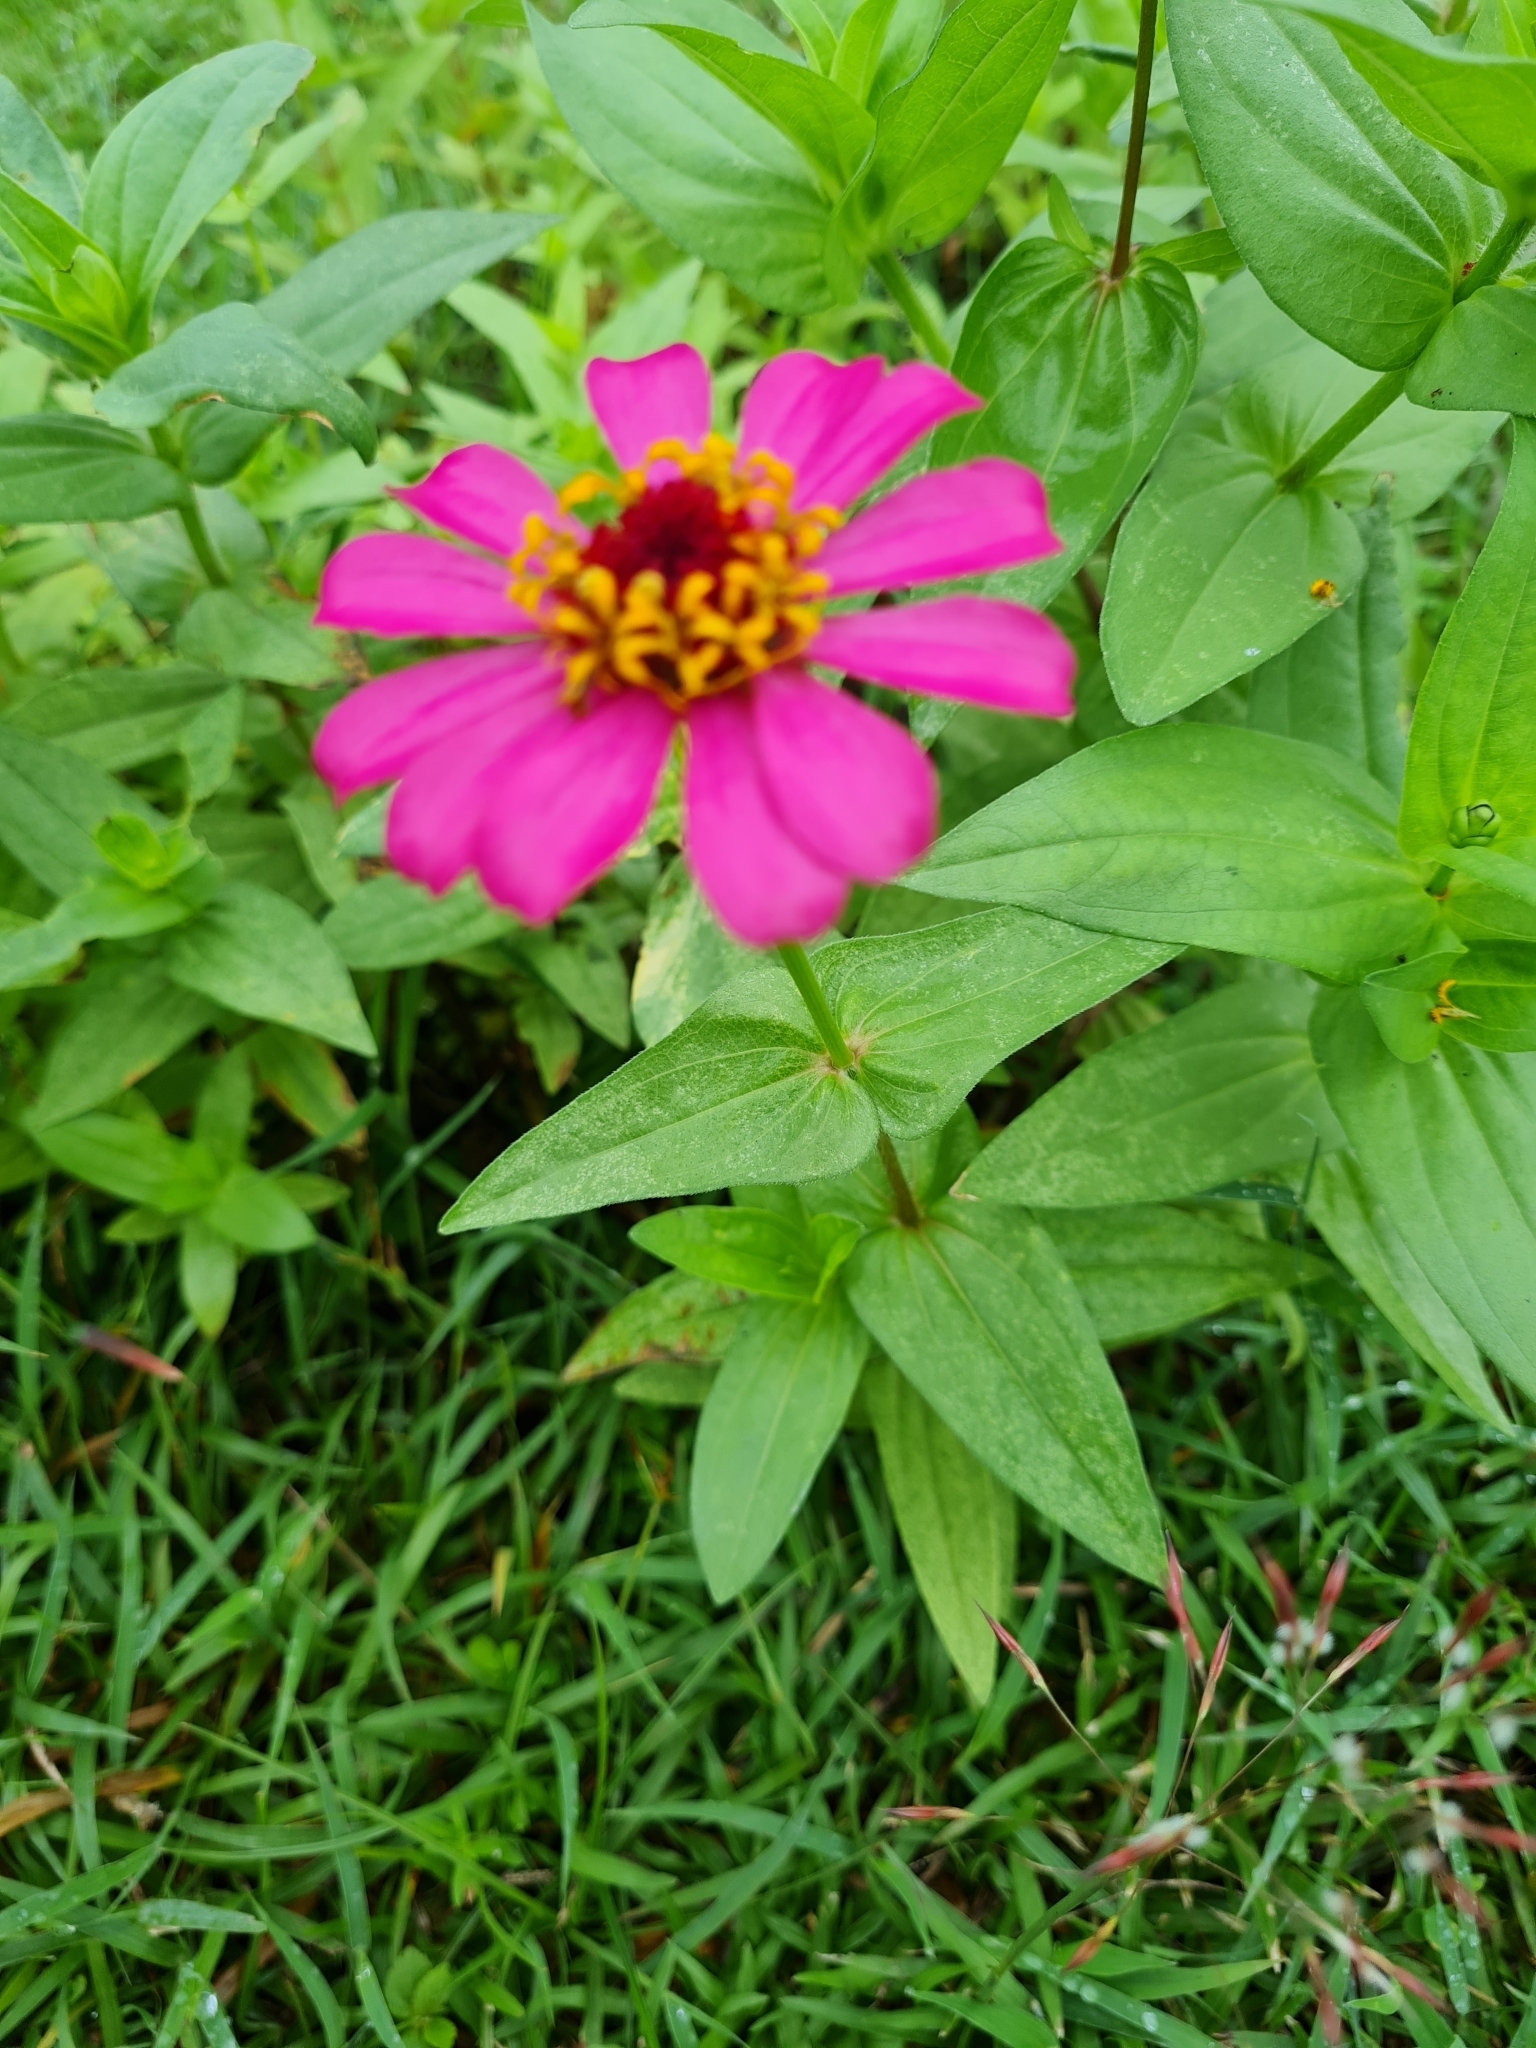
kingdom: Plantae
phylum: Tracheophyta
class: Magnoliopsida
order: Asterales
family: Asteraceae
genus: Zinnia
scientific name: Zinnia elegans
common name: Youth-and-age
